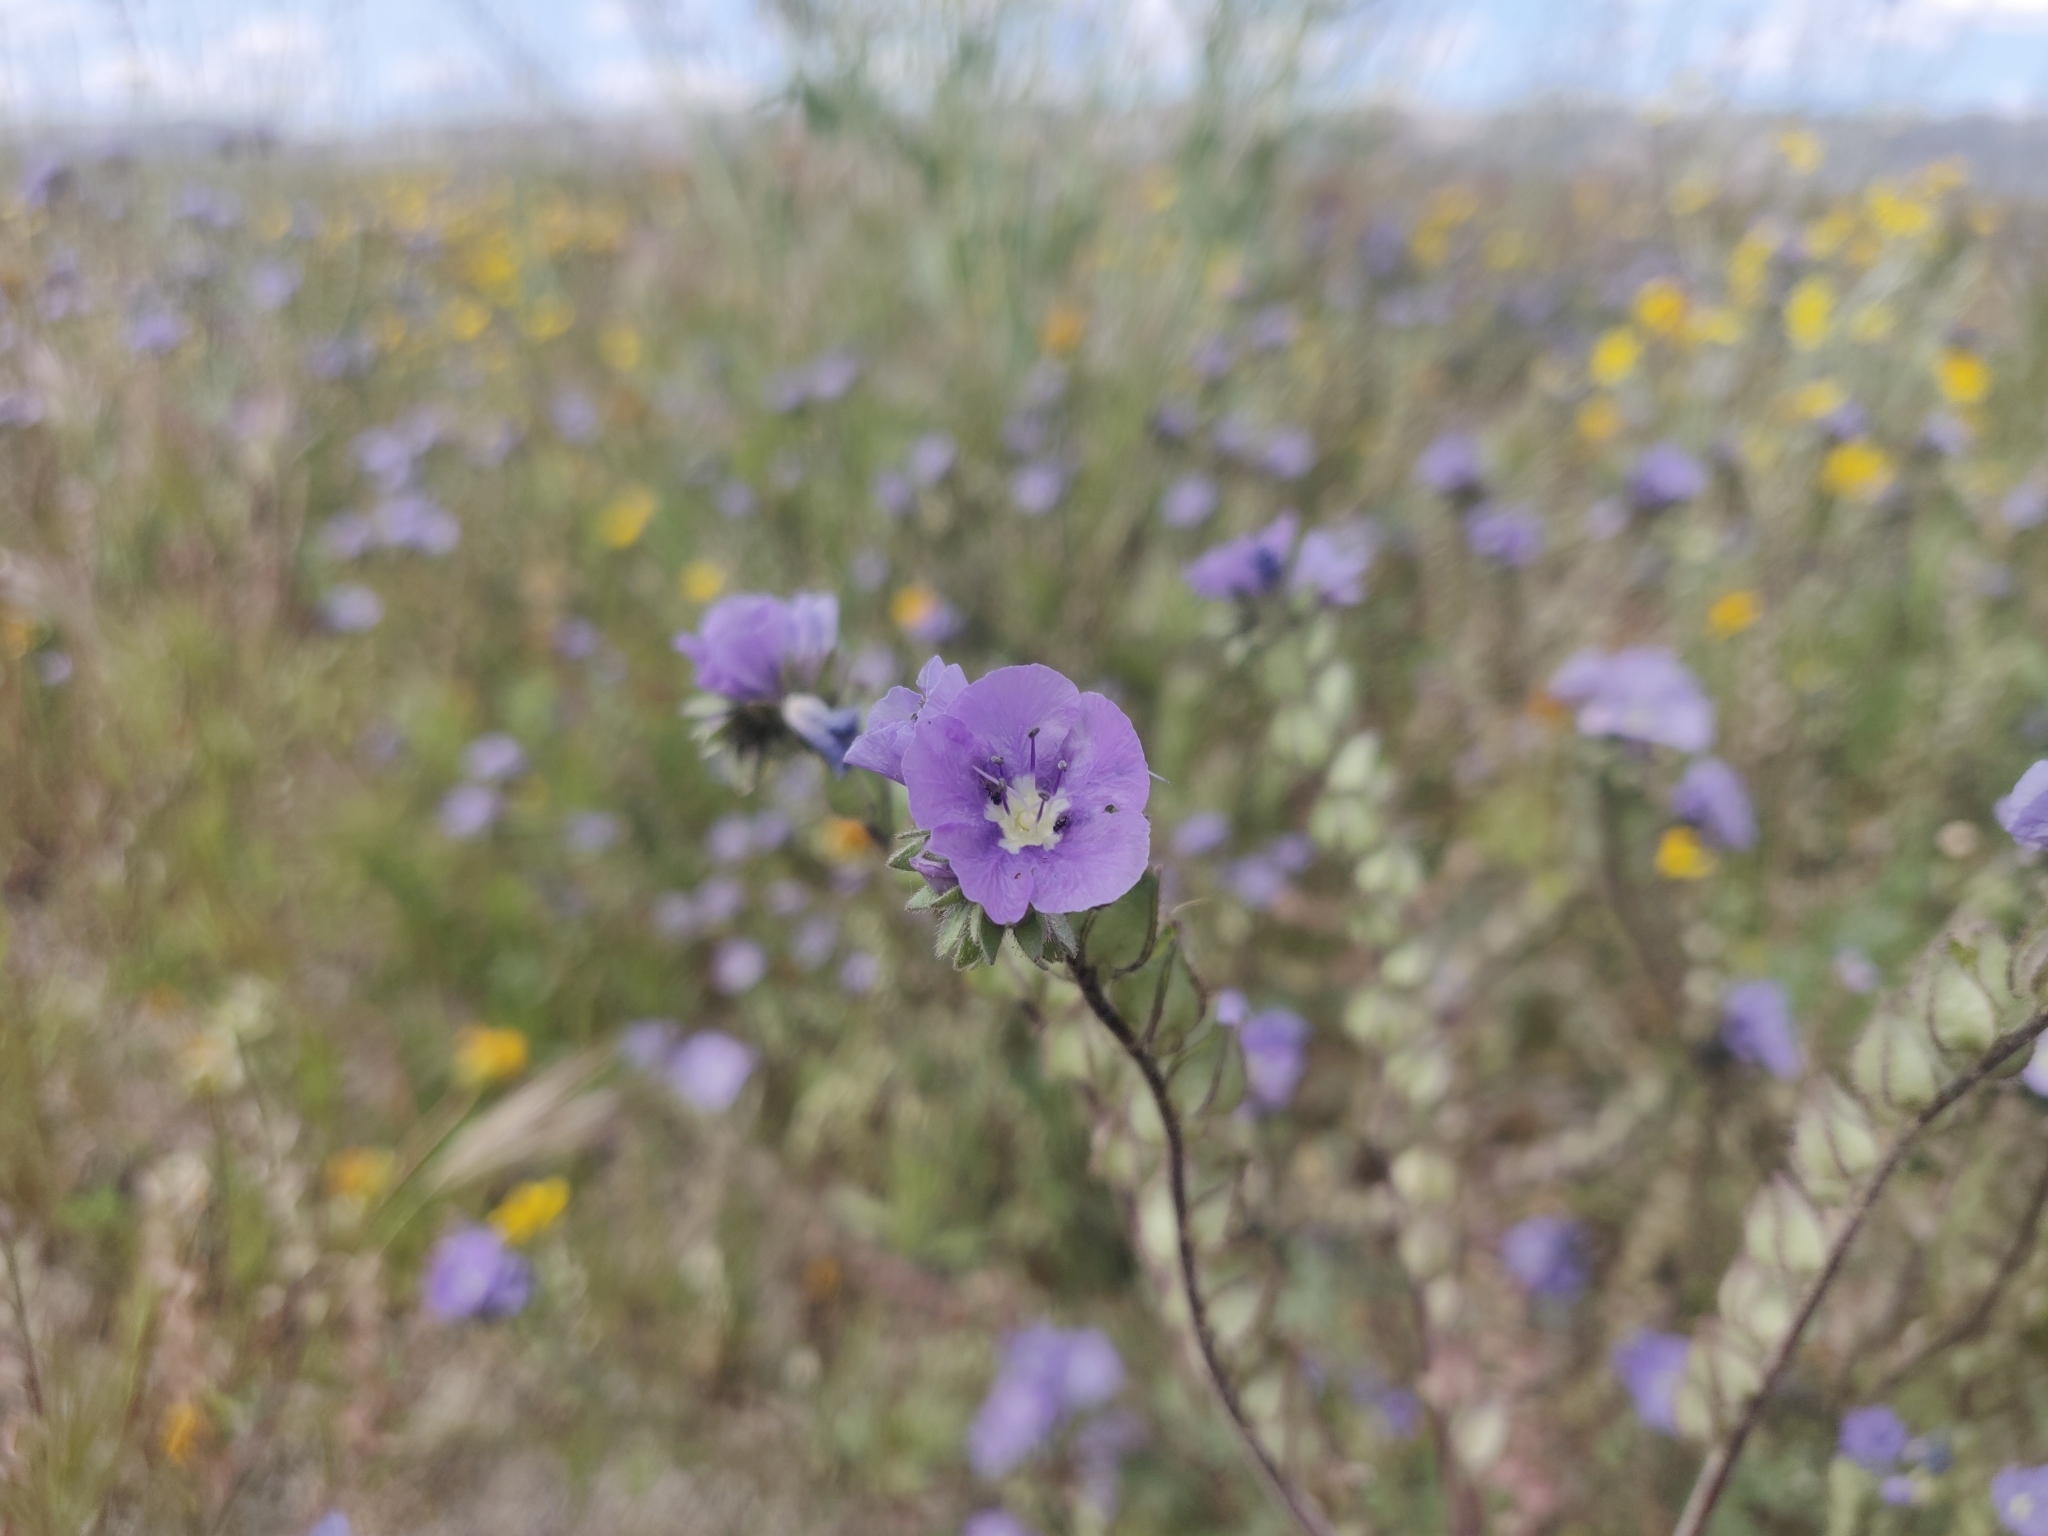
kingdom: Plantae
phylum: Tracheophyta
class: Magnoliopsida
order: Boraginales
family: Hydrophyllaceae
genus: Phacelia
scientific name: Phacelia ciliata
